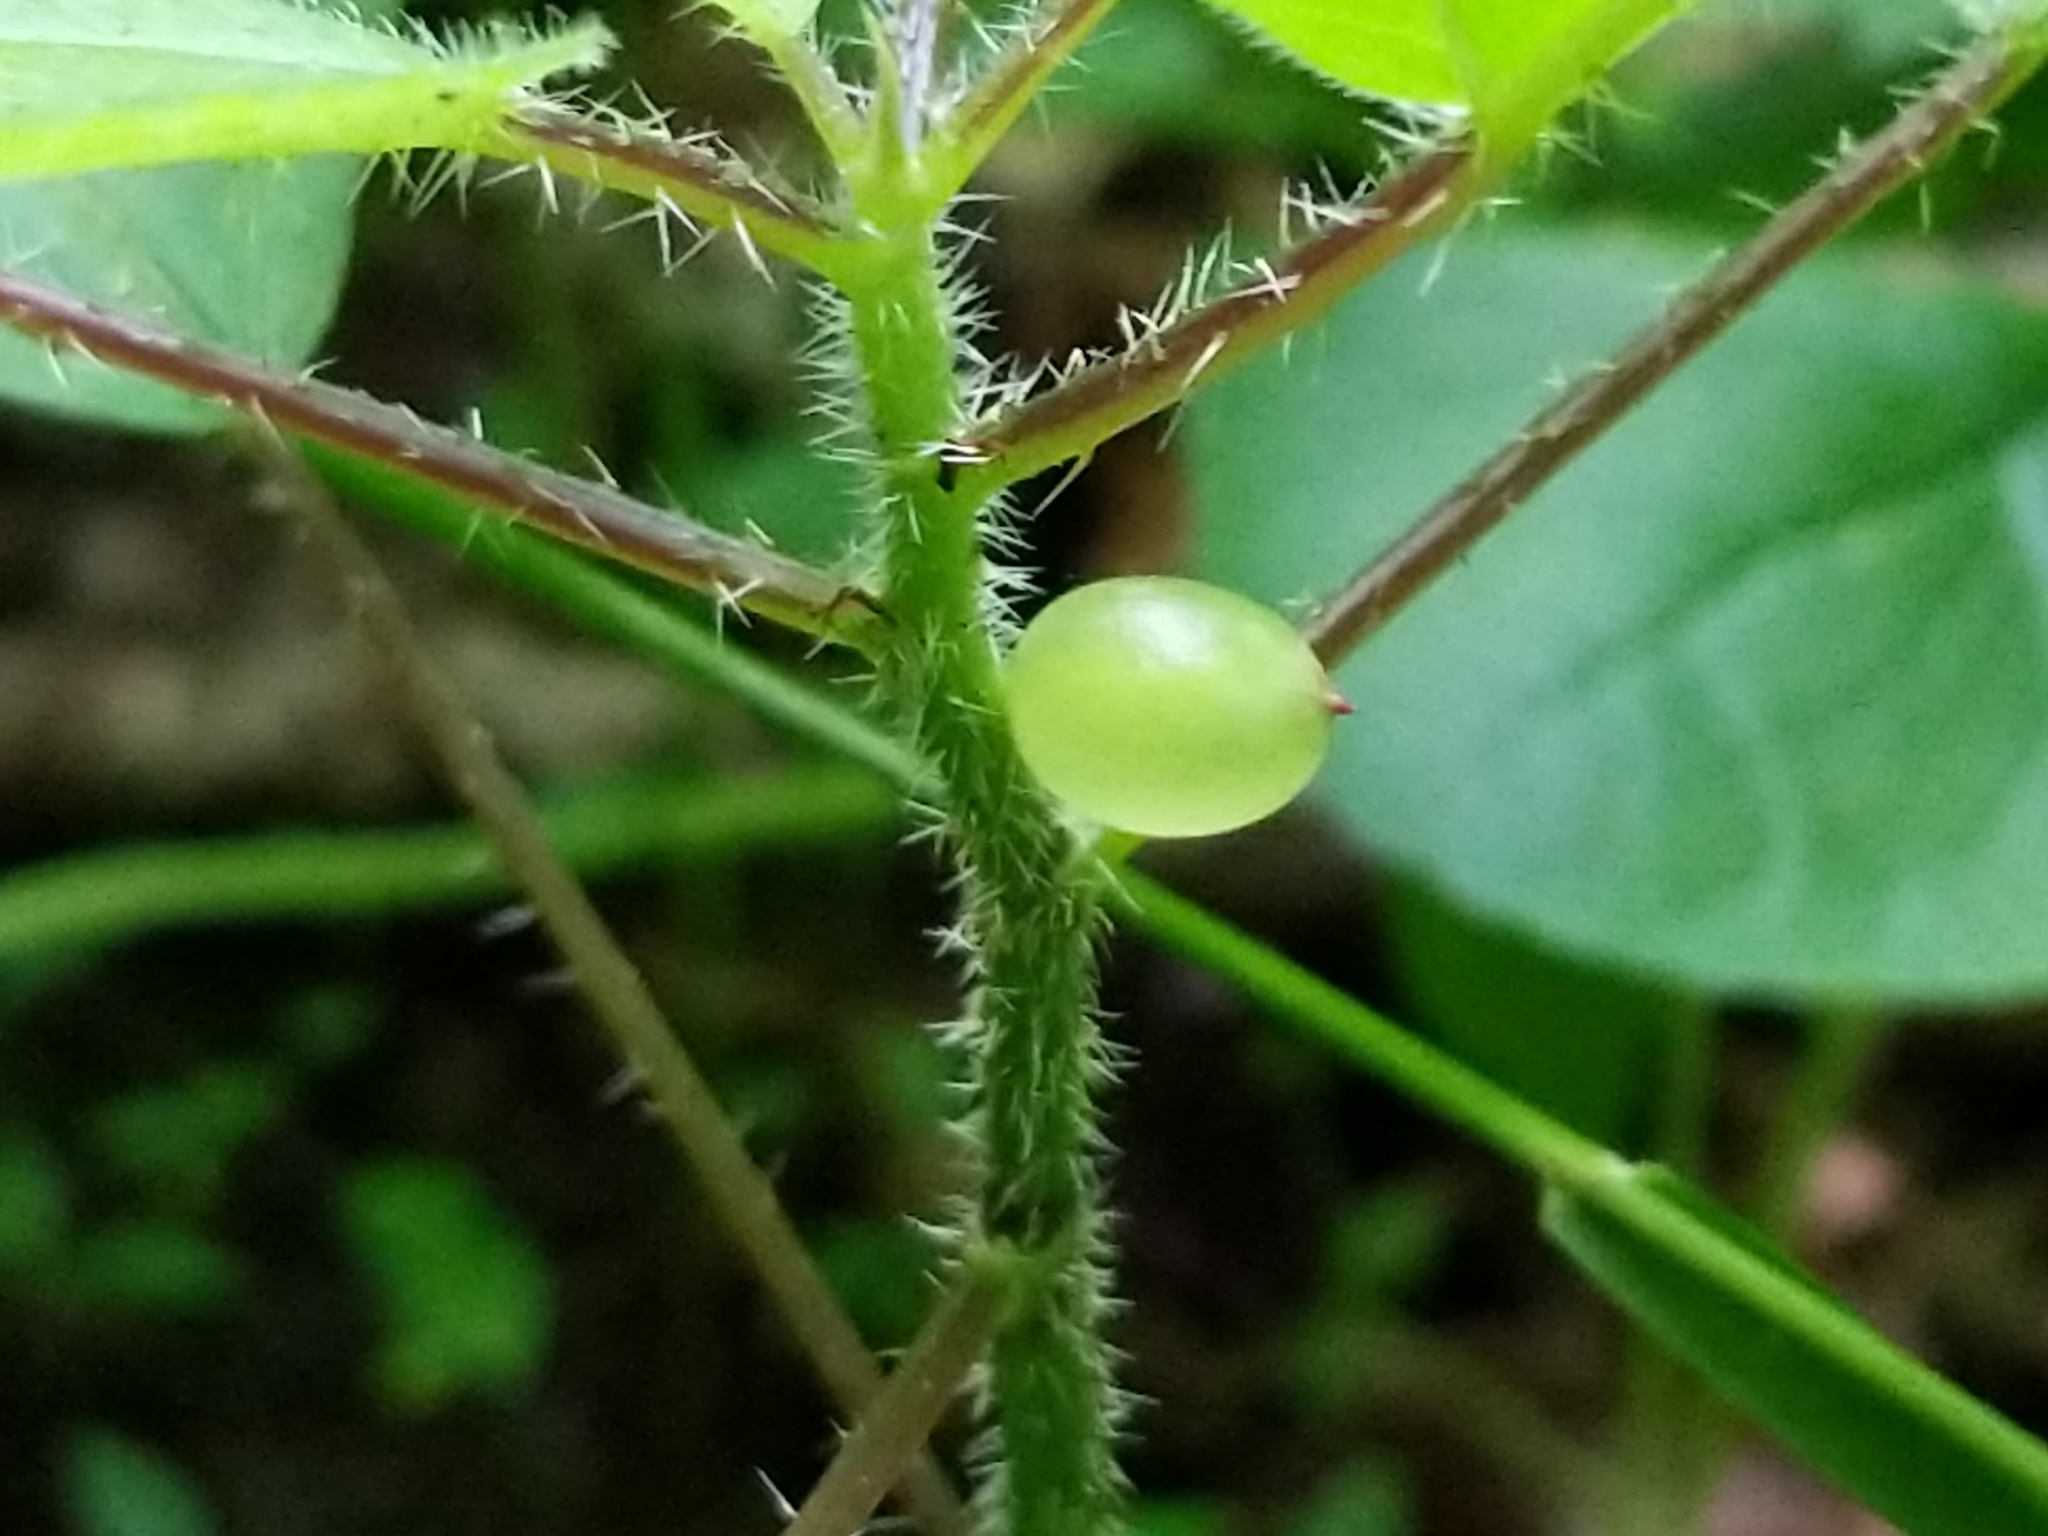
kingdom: Animalia
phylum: Arthropoda
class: Insecta
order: Diptera
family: Cecidomyiidae
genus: Dasineura
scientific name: Dasineura investita
